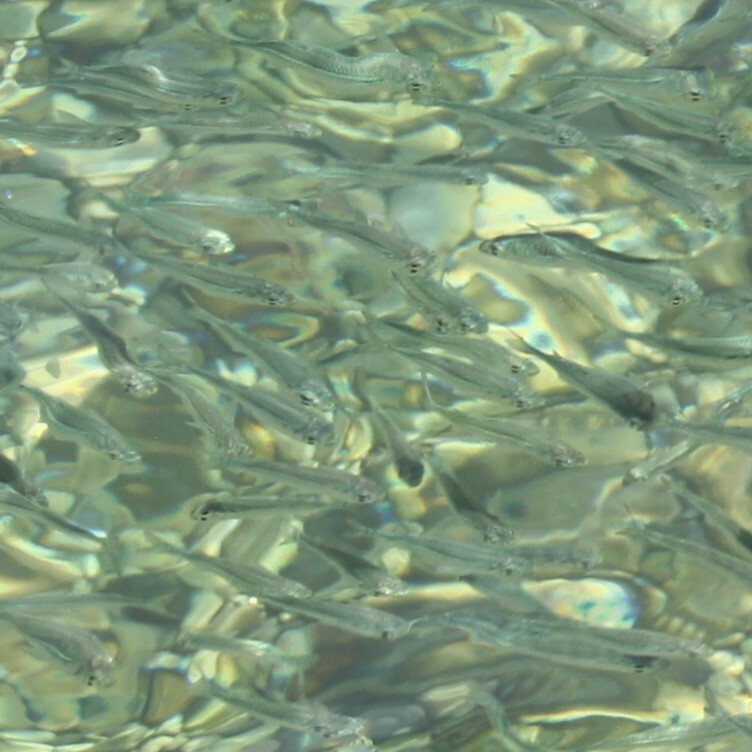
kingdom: Animalia
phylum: Chordata
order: Atheriniformes
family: Atherinidae
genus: Atherinomorus
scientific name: Atherinomorus forskalii
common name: Red sea hardyhead silverside
